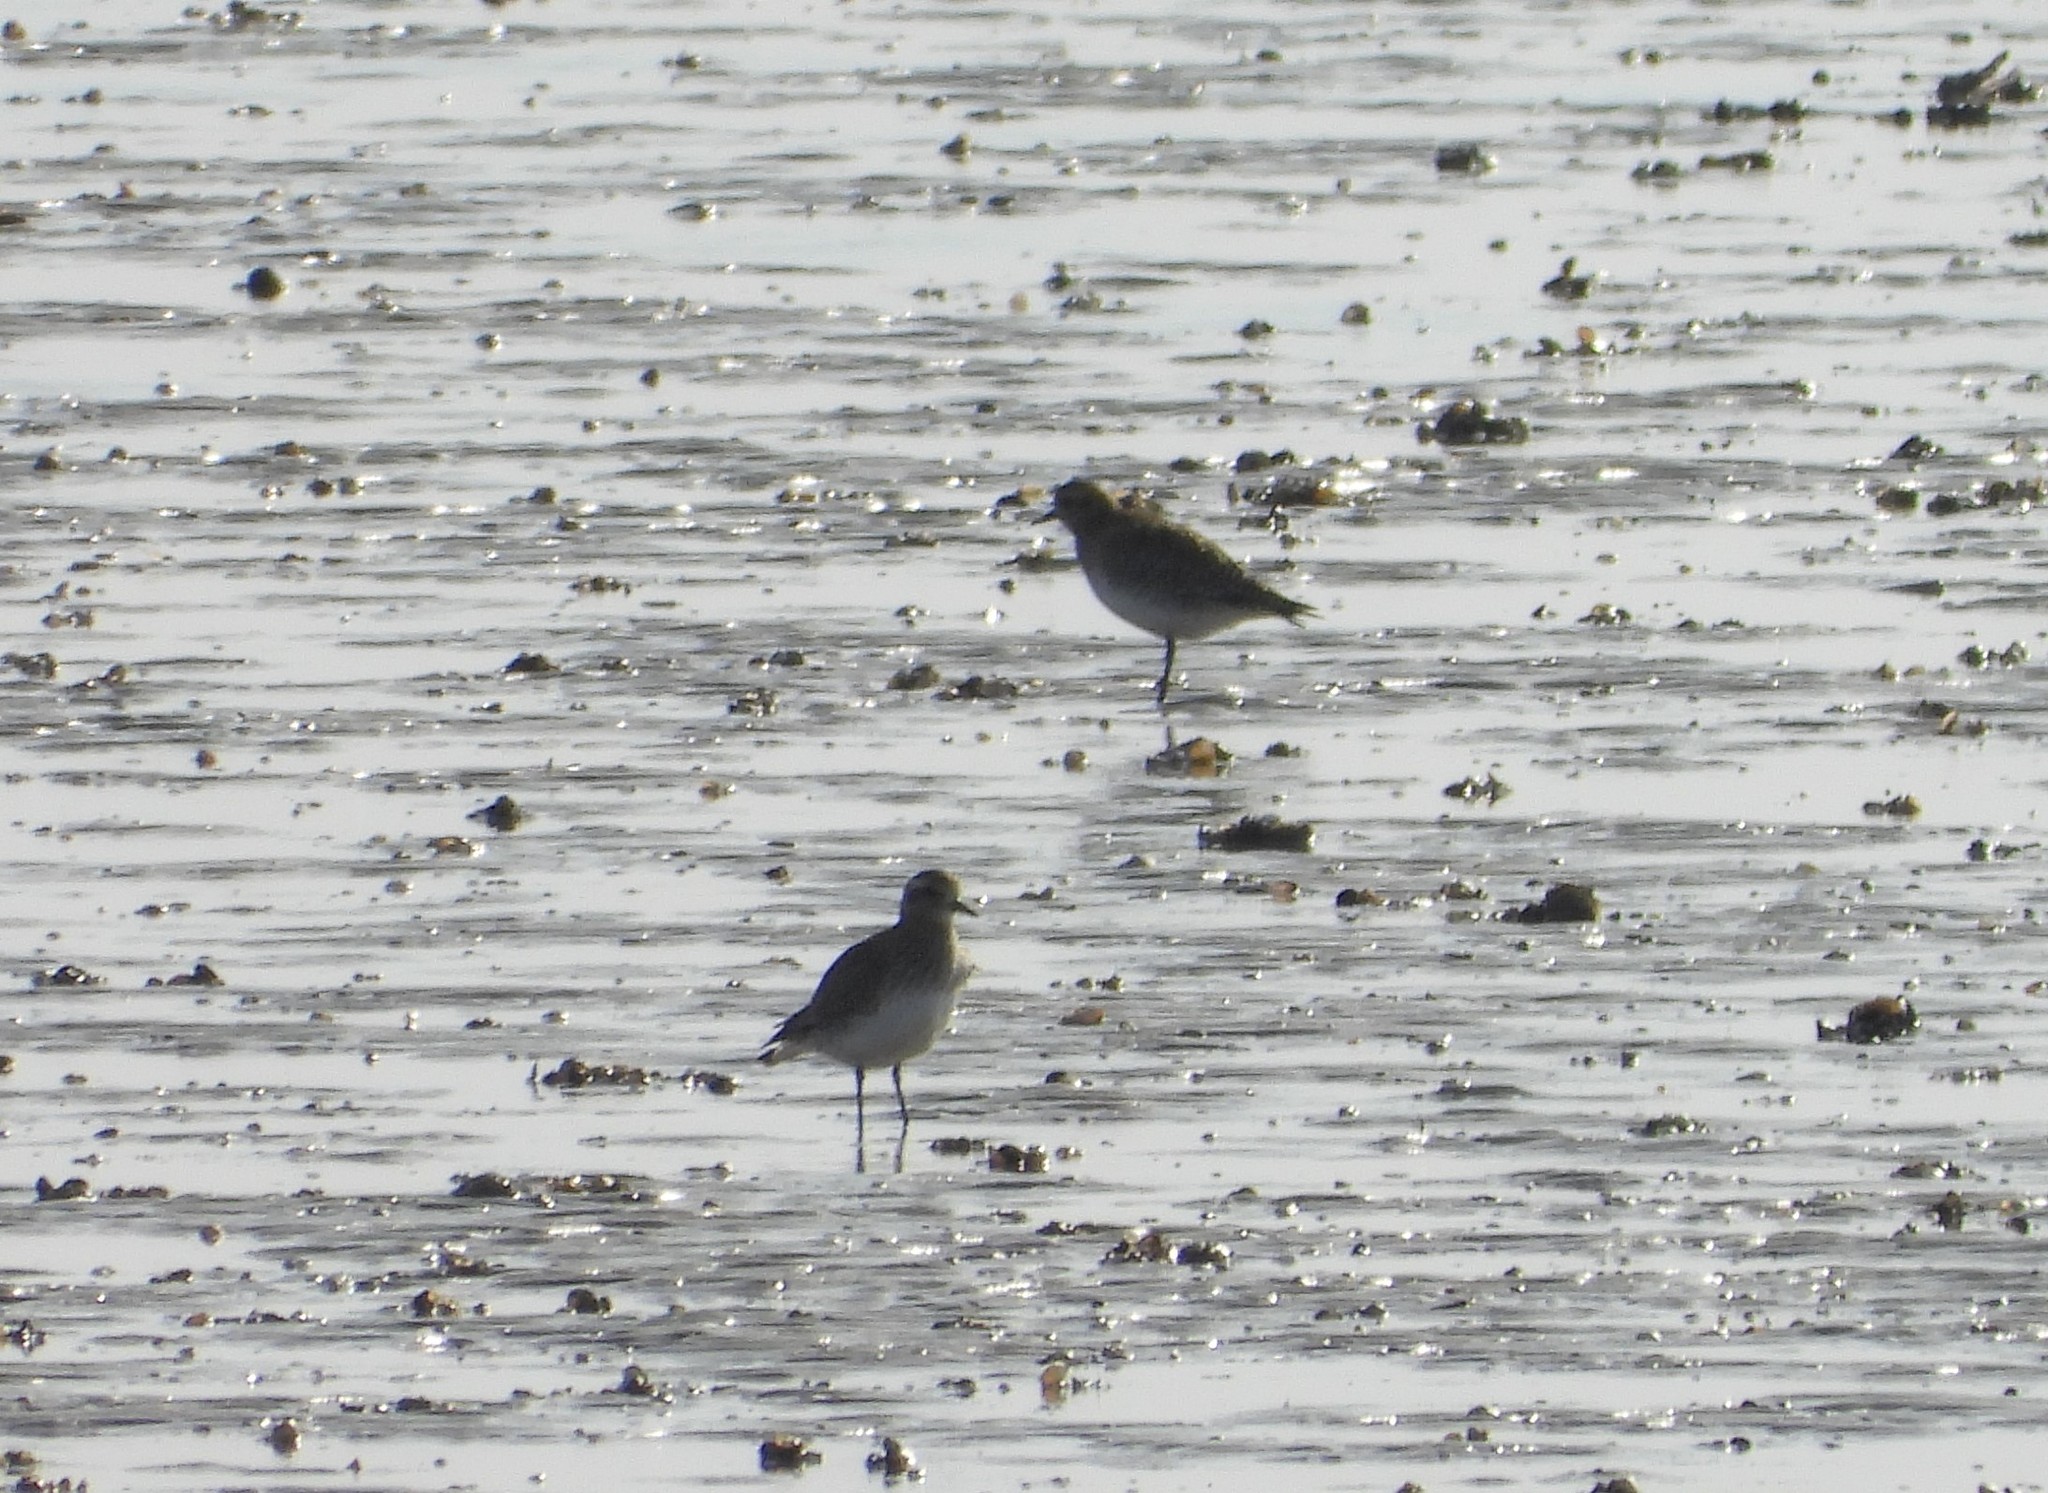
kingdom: Animalia
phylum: Chordata
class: Aves
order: Charadriiformes
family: Charadriidae
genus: Pluvialis
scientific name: Pluvialis apricaria
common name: European golden plover
